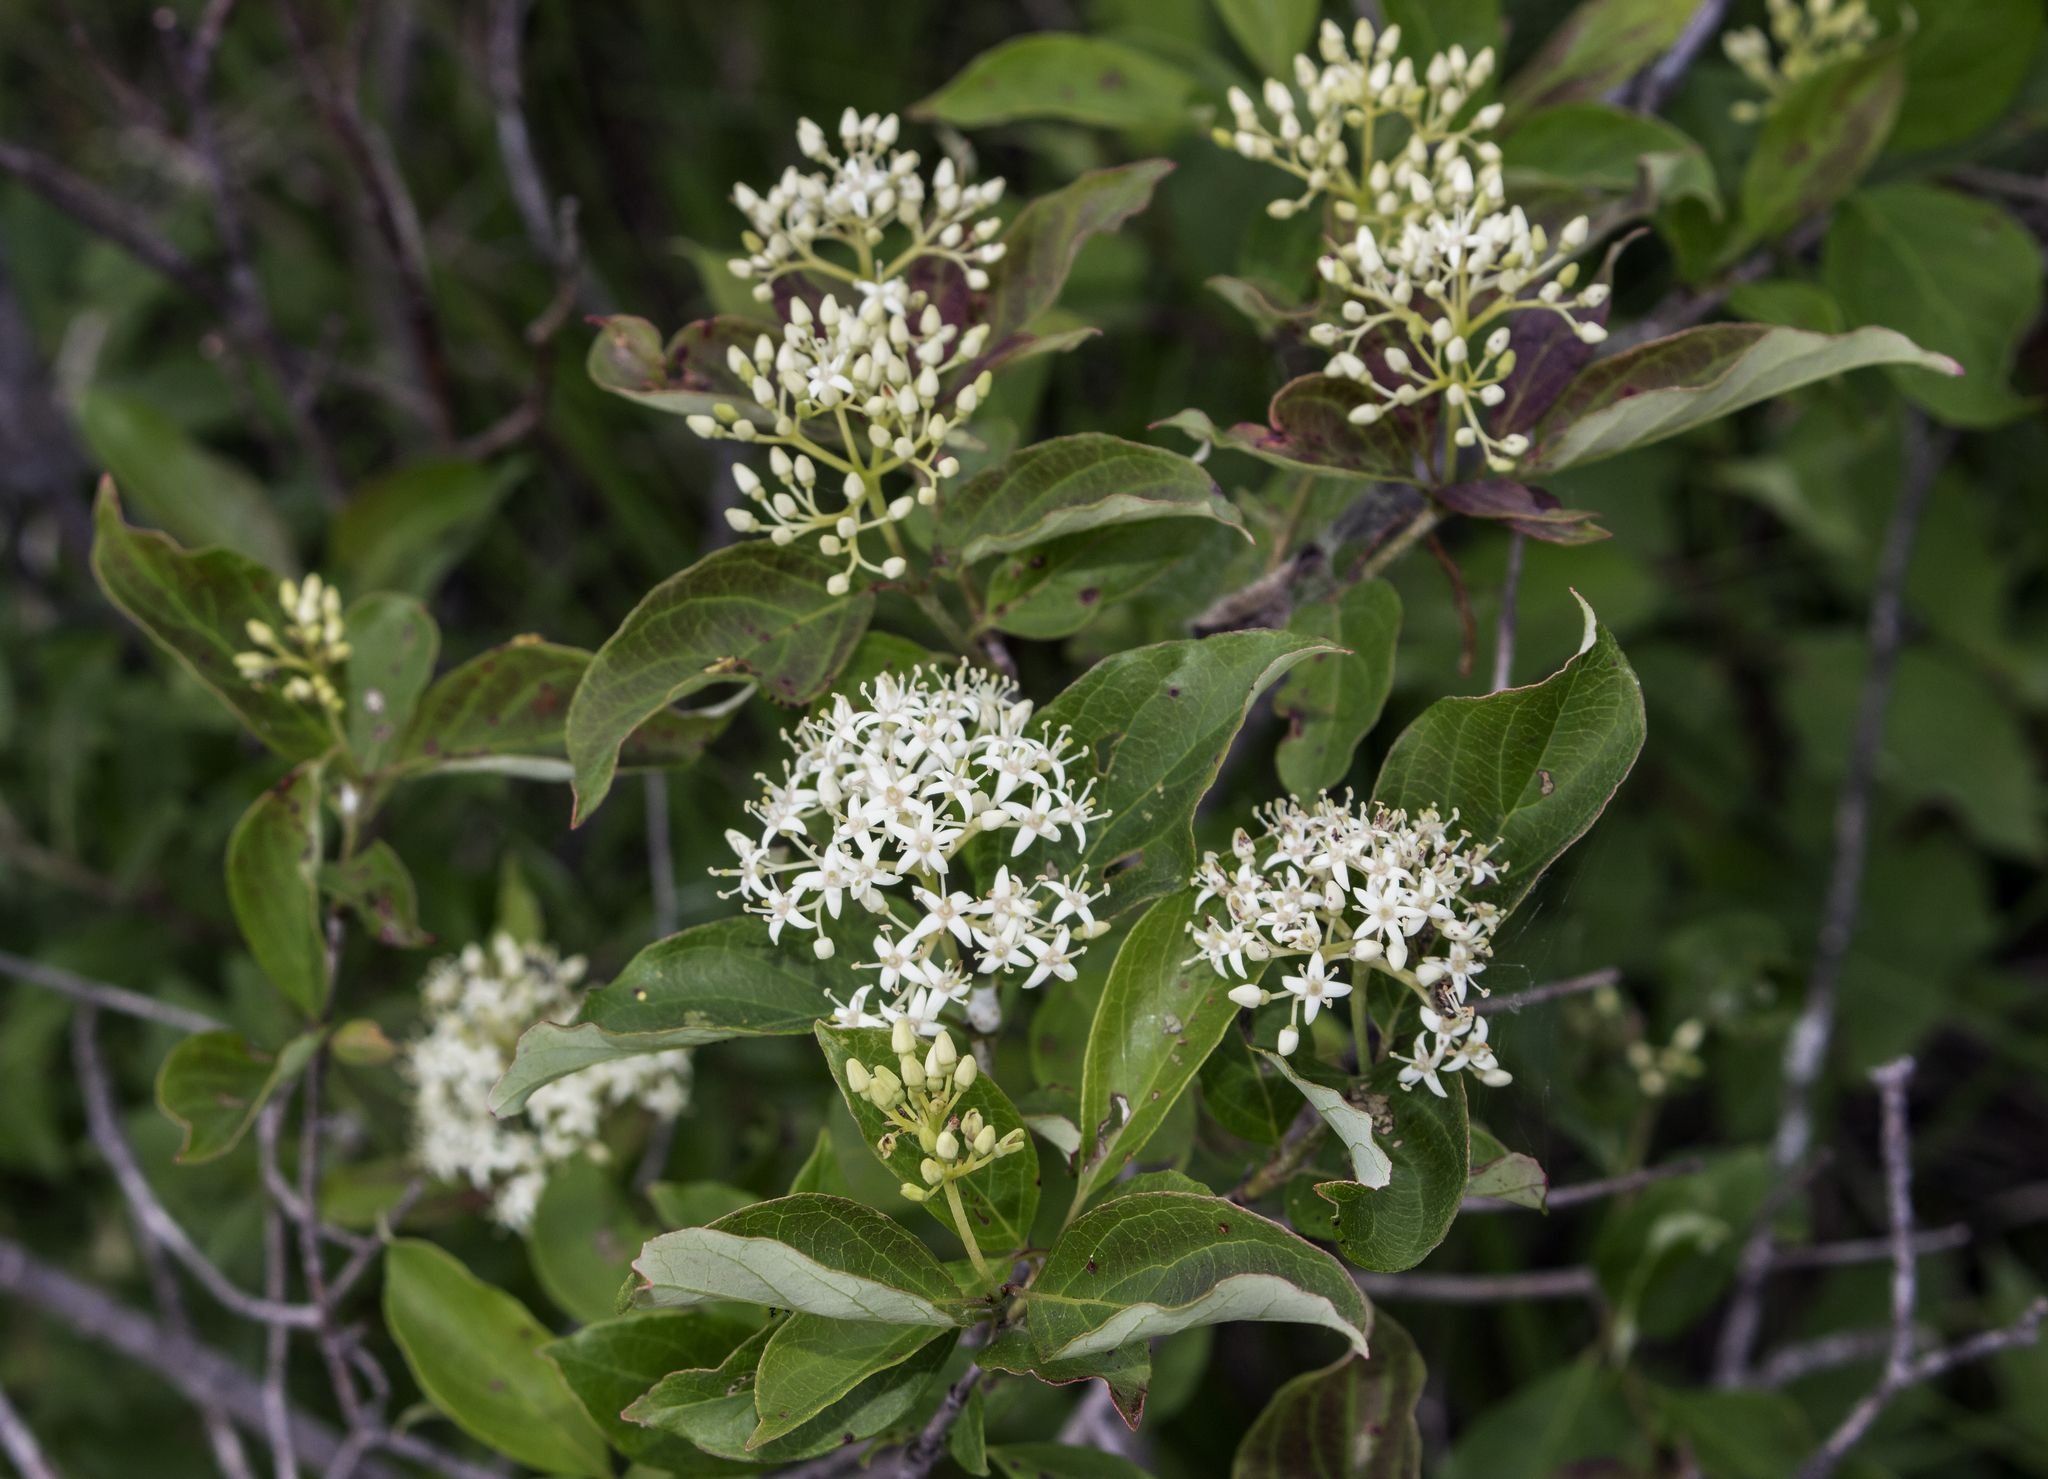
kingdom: Plantae
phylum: Tracheophyta
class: Magnoliopsida
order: Cornales
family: Cornaceae
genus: Cornus
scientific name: Cornus racemosa
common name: Panicled dogwood
